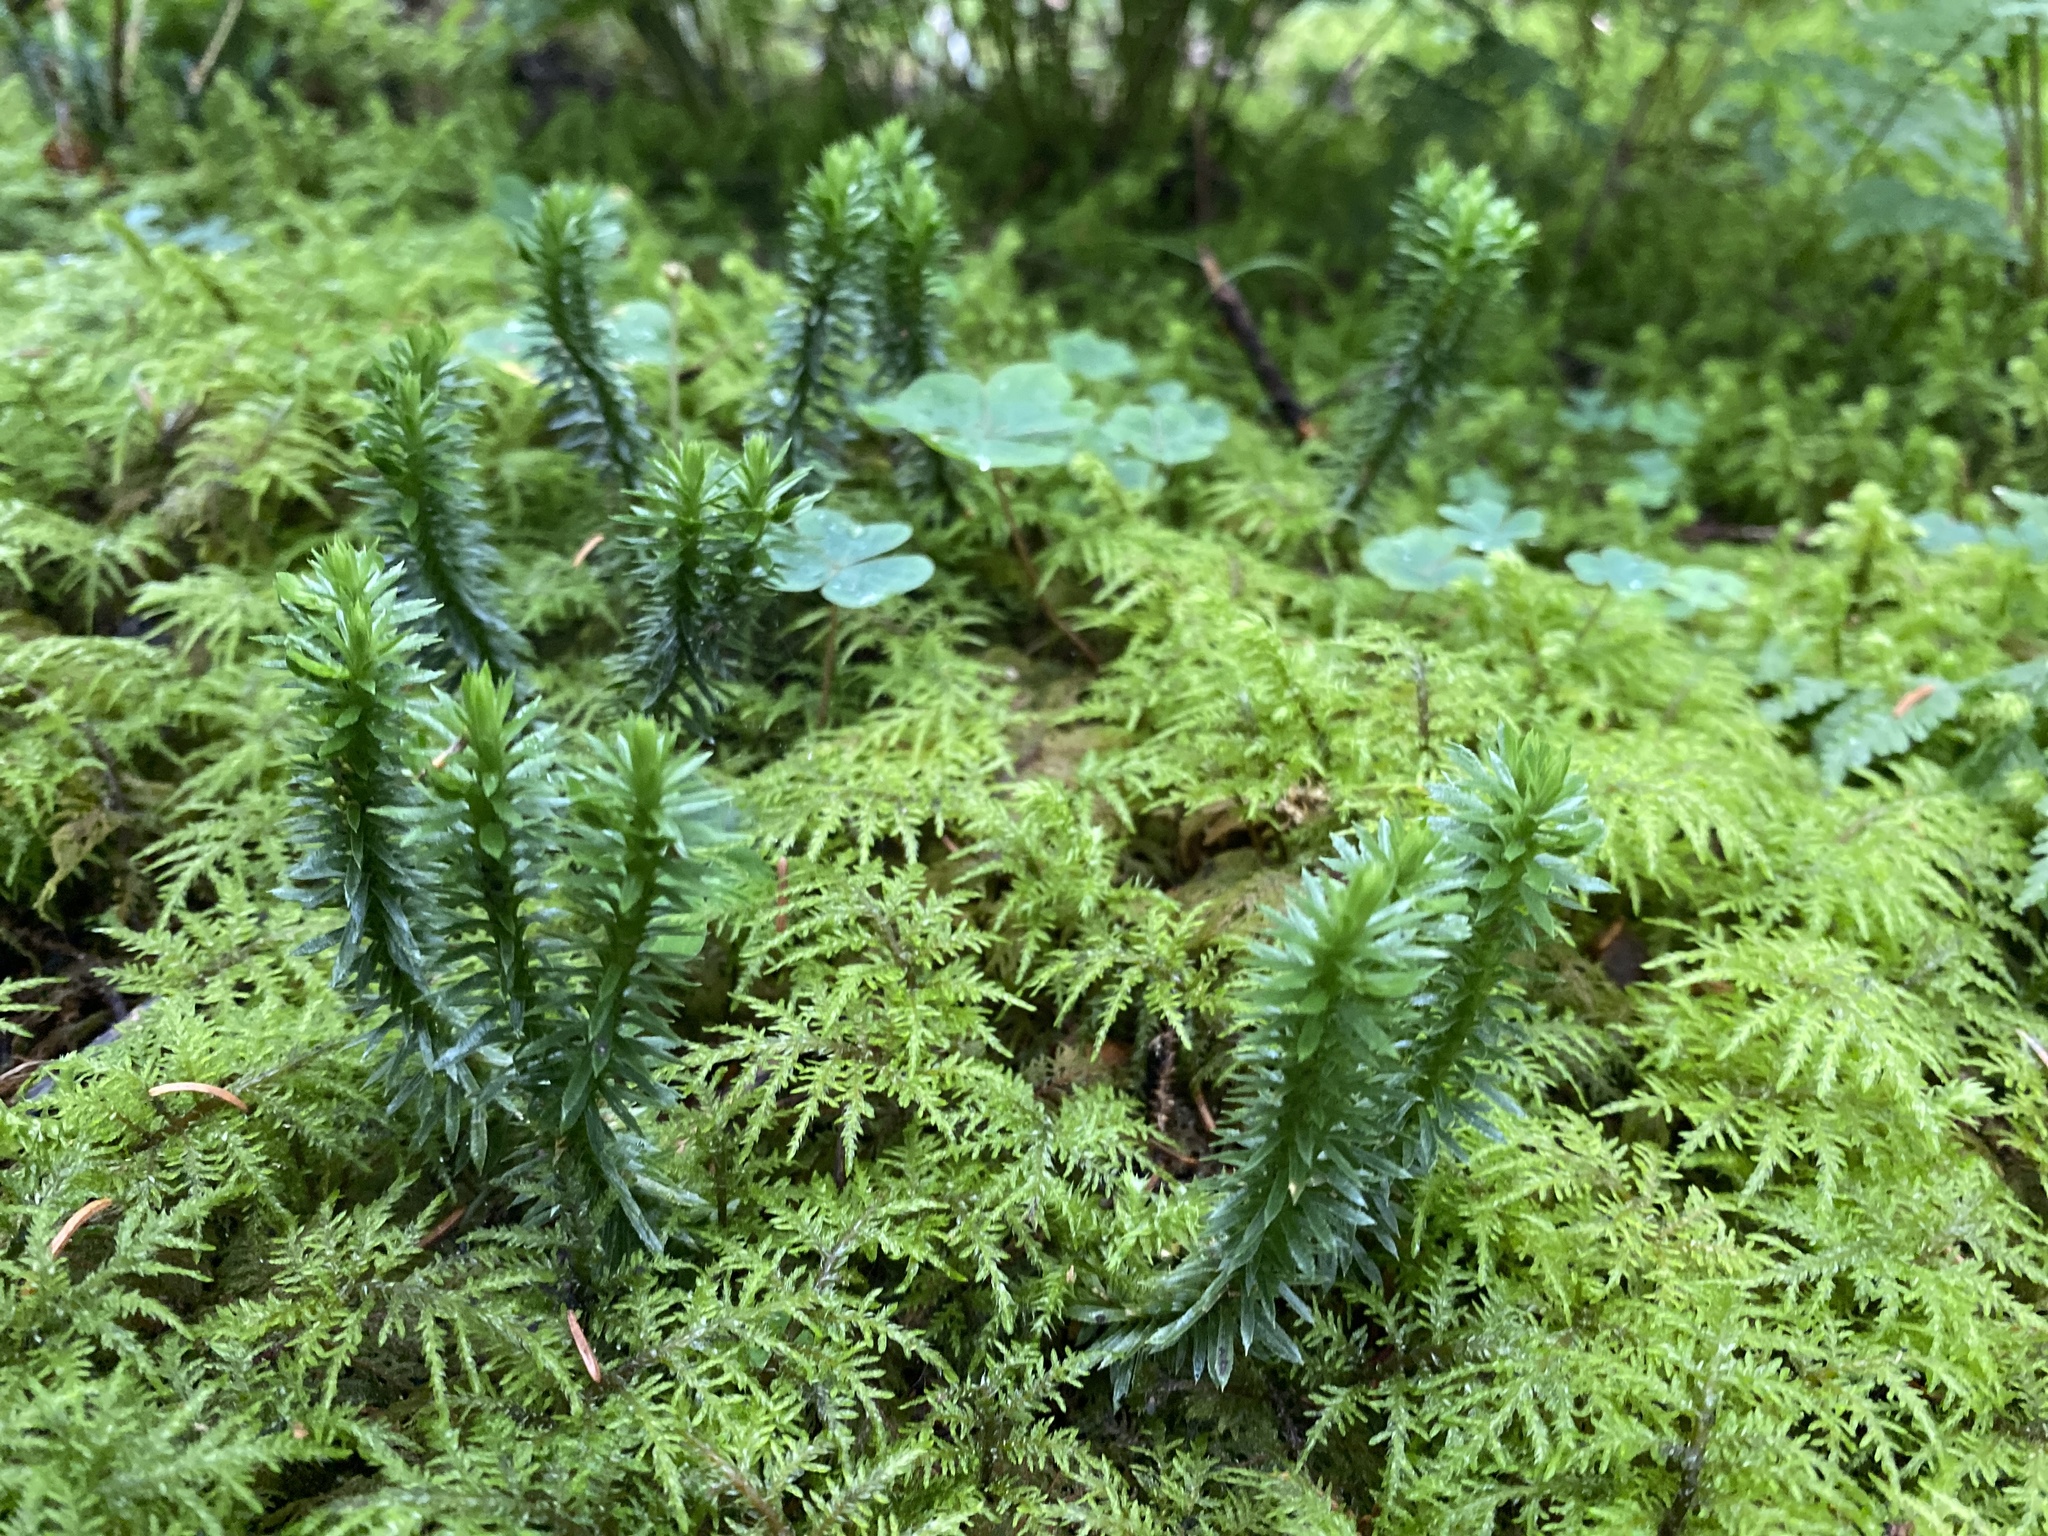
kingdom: Plantae
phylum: Tracheophyta
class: Lycopodiopsida
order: Lycopodiales
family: Lycopodiaceae
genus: Huperzia
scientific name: Huperzia lucidula
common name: Shining clubmoss
